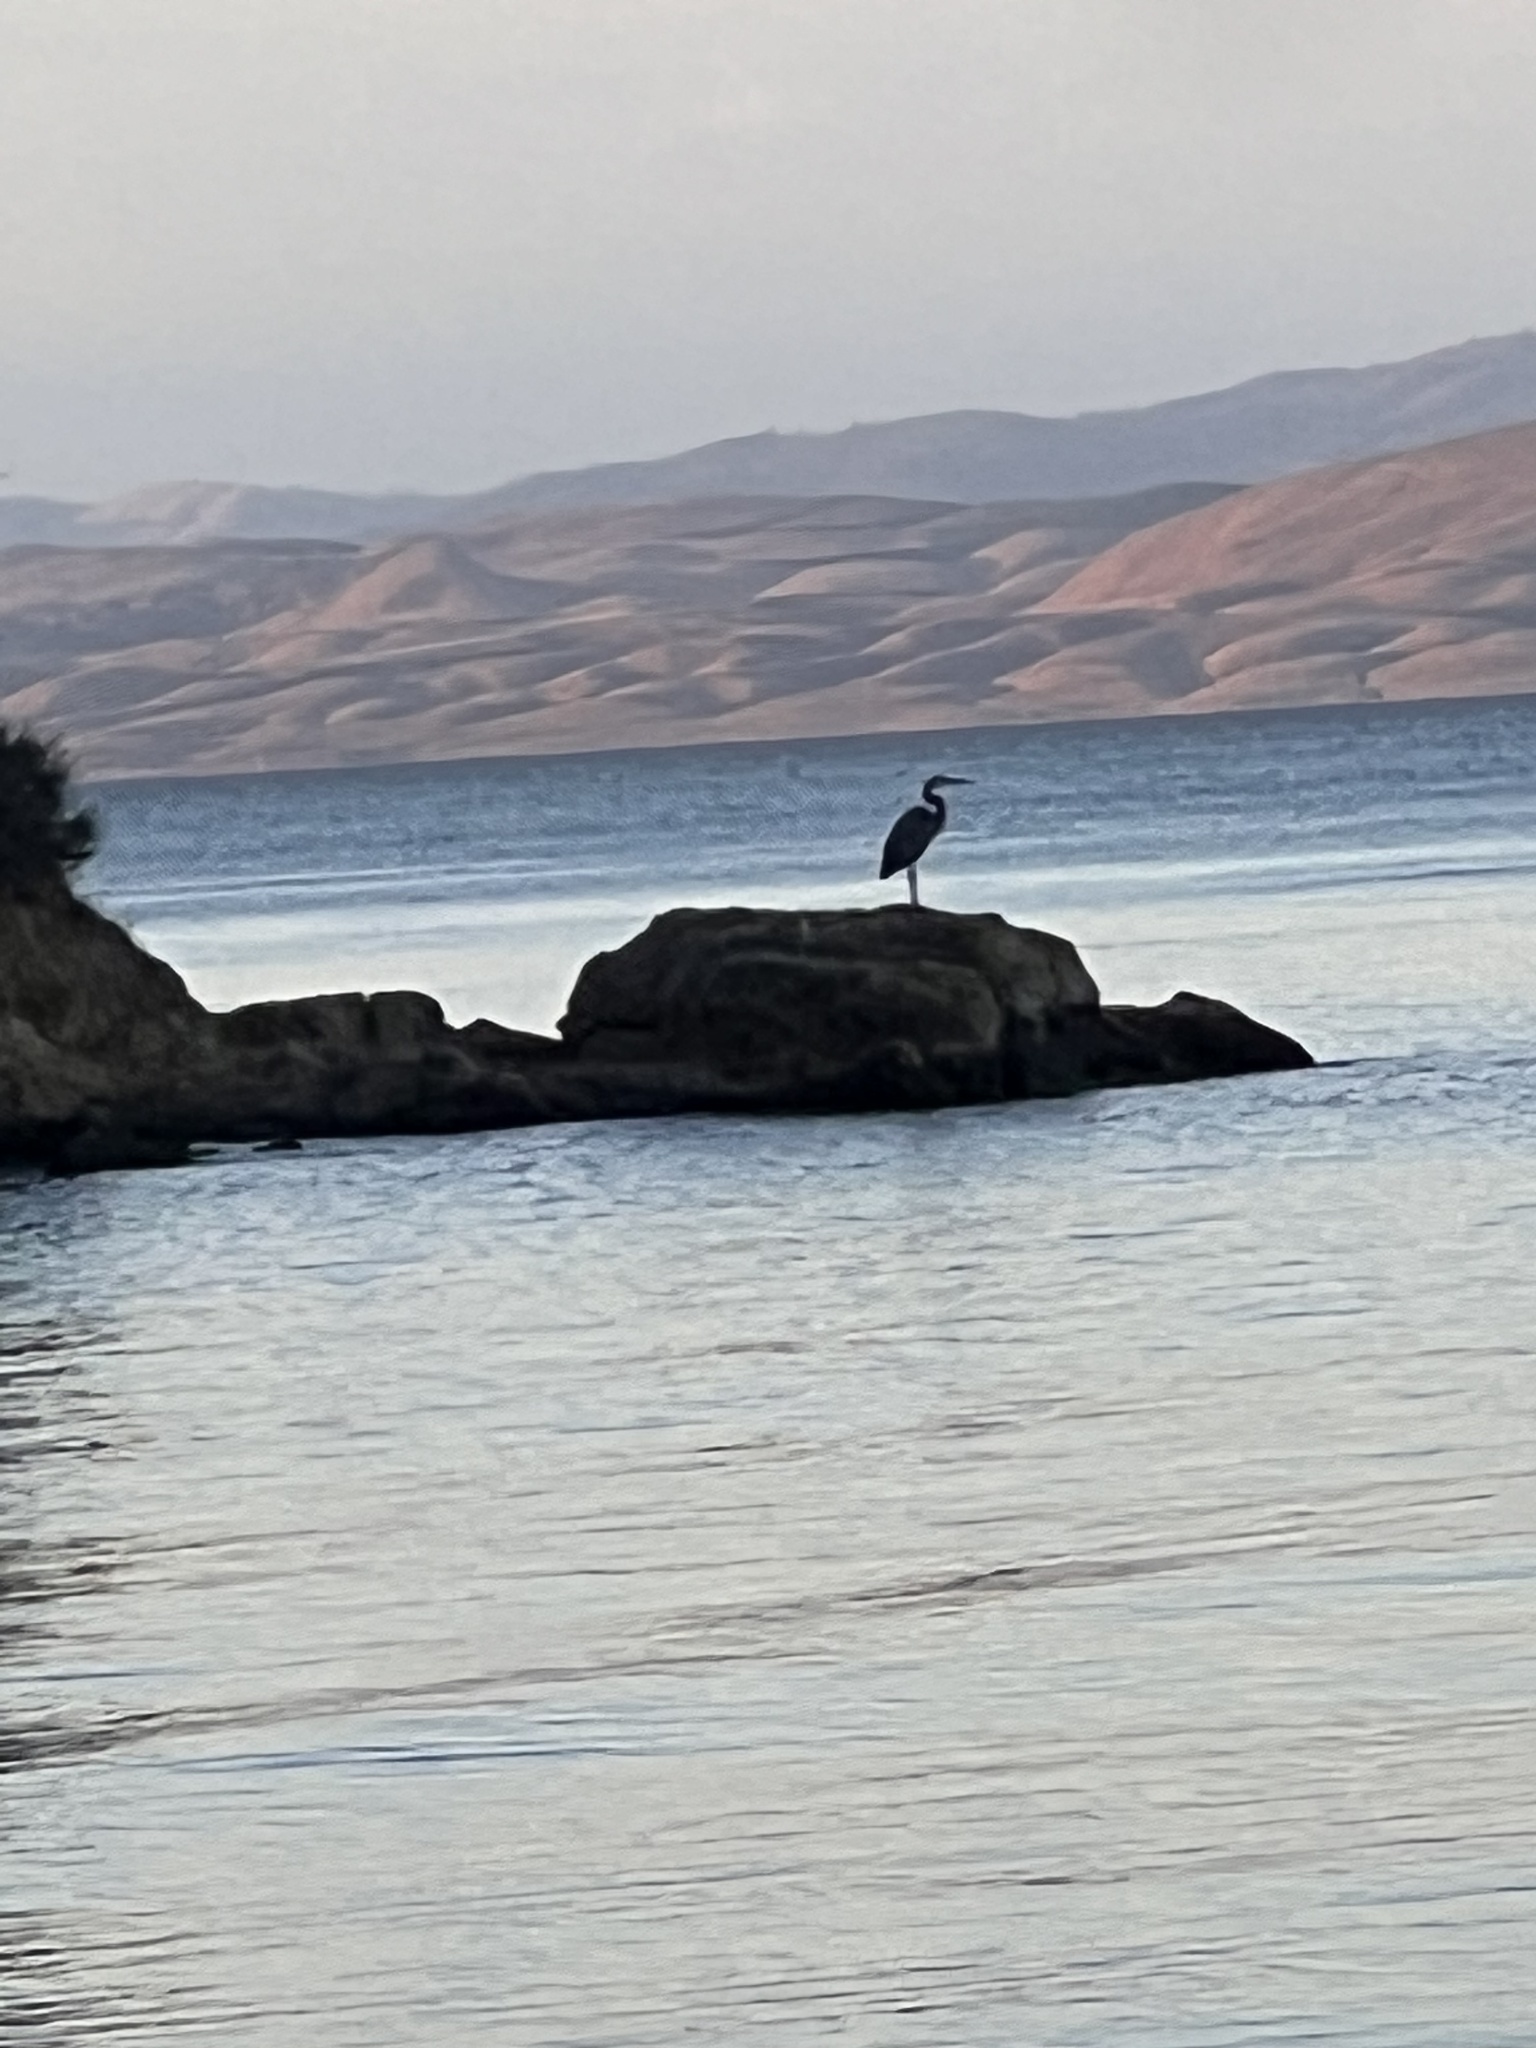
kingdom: Animalia
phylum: Chordata
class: Aves
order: Pelecaniformes
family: Ardeidae
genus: Ardea
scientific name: Ardea herodias
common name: Great blue heron
